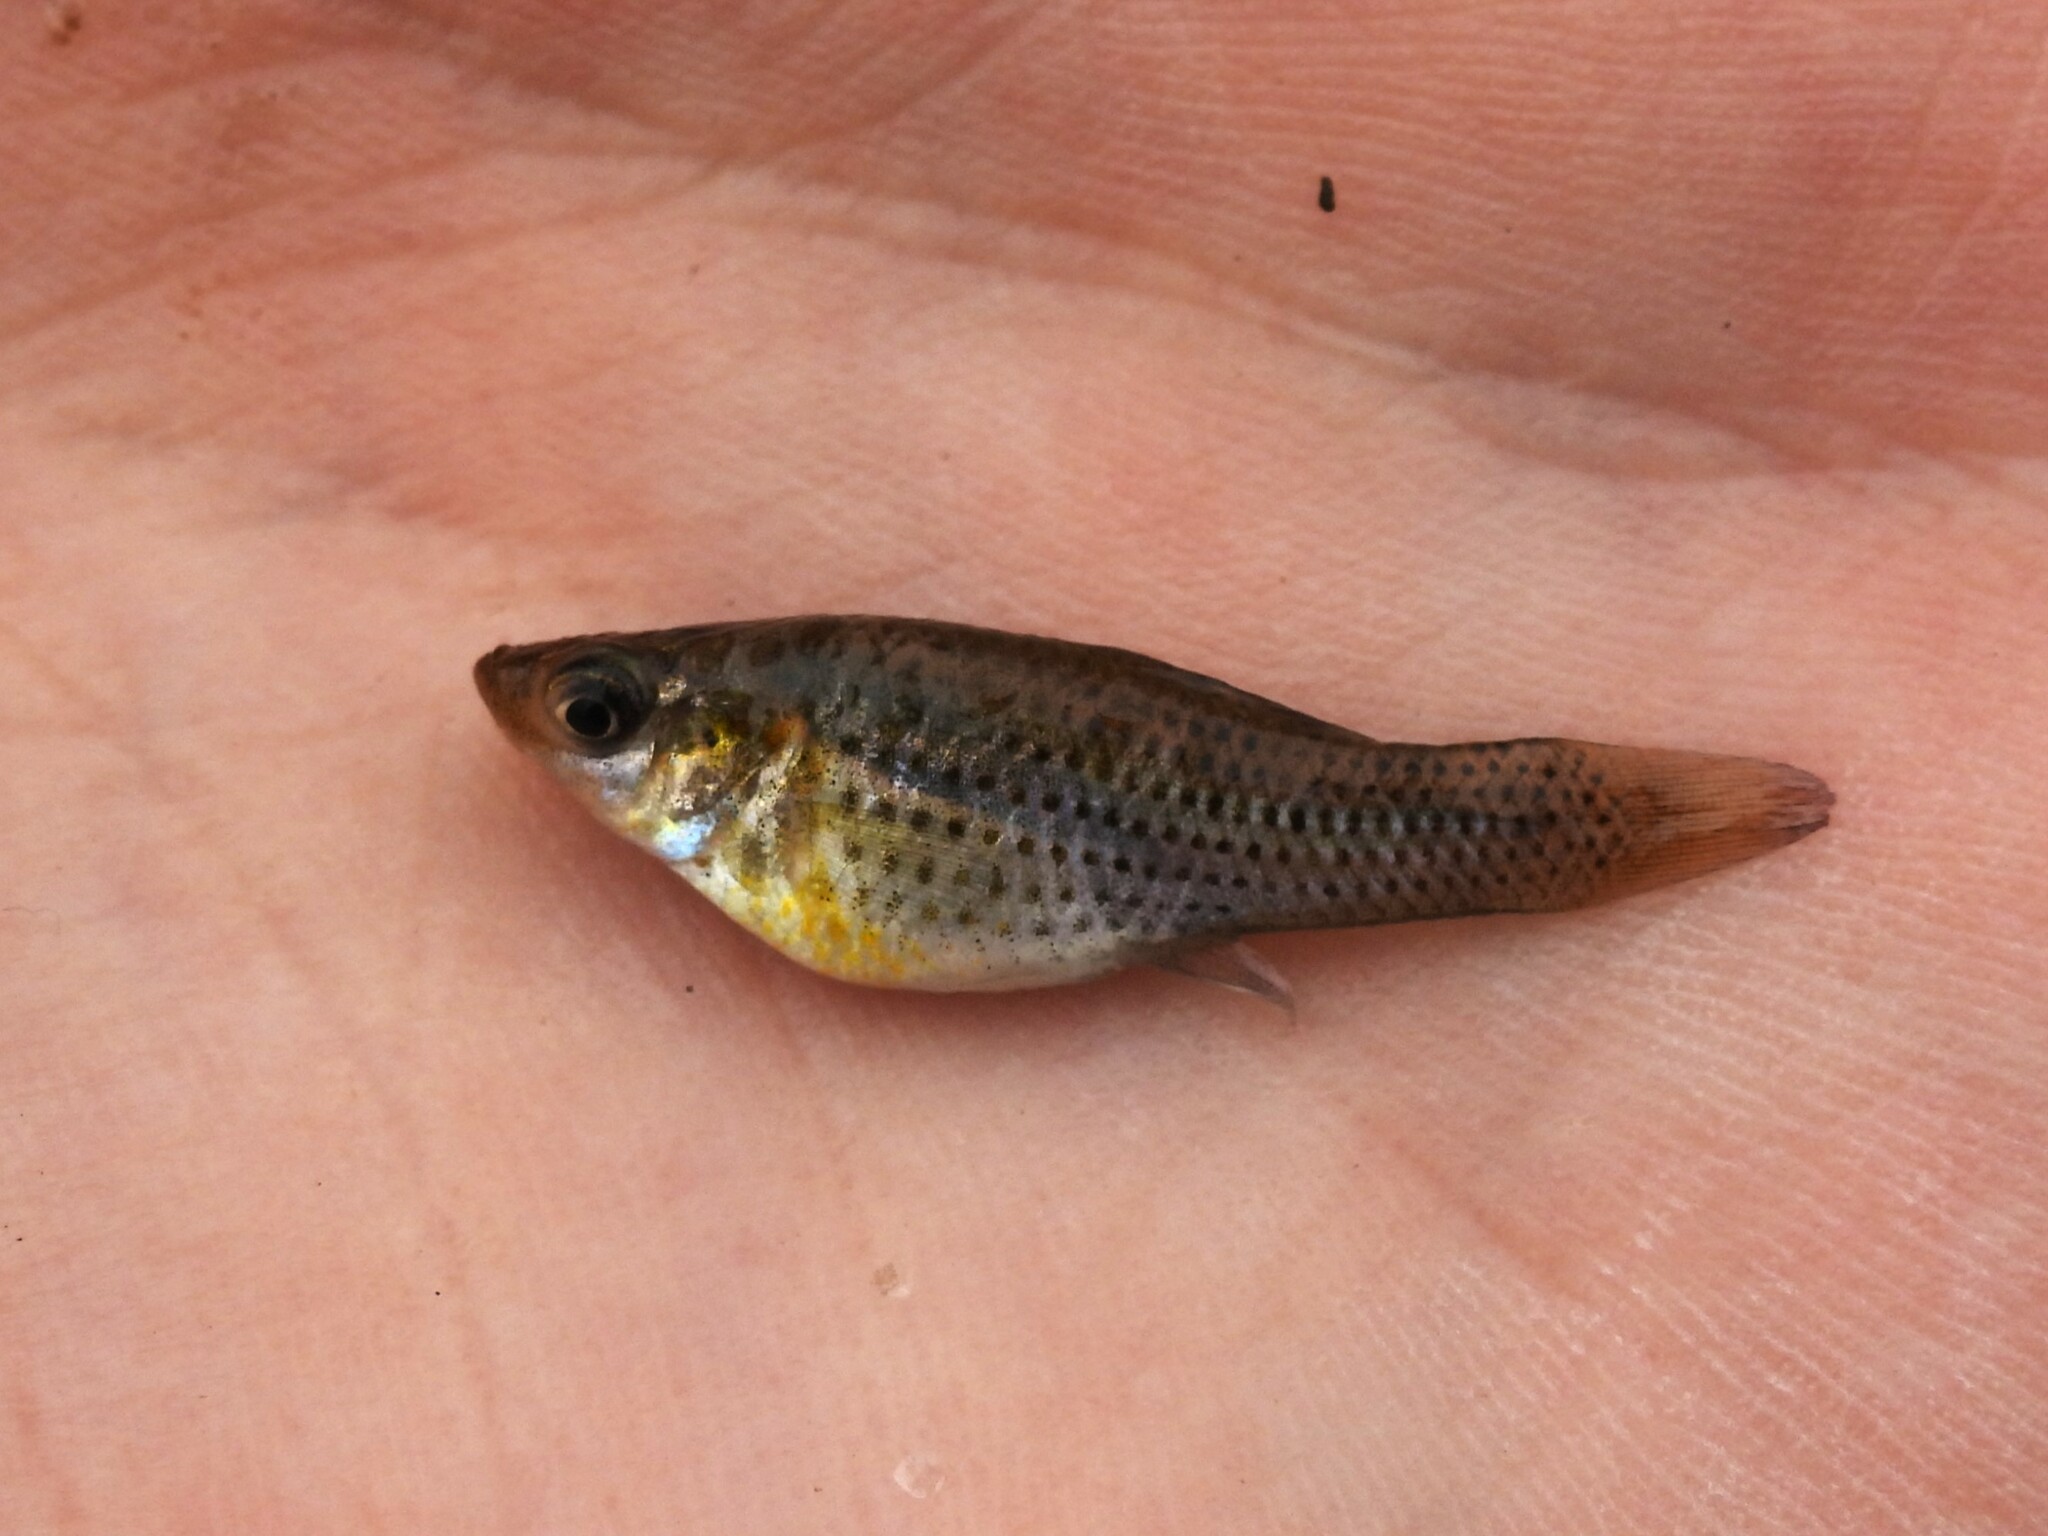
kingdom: Animalia
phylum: Chordata
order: Cyprinodontiformes
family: Poeciliidae
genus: Poecilia
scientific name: Poecilia latipinna
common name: Sailfin molly
